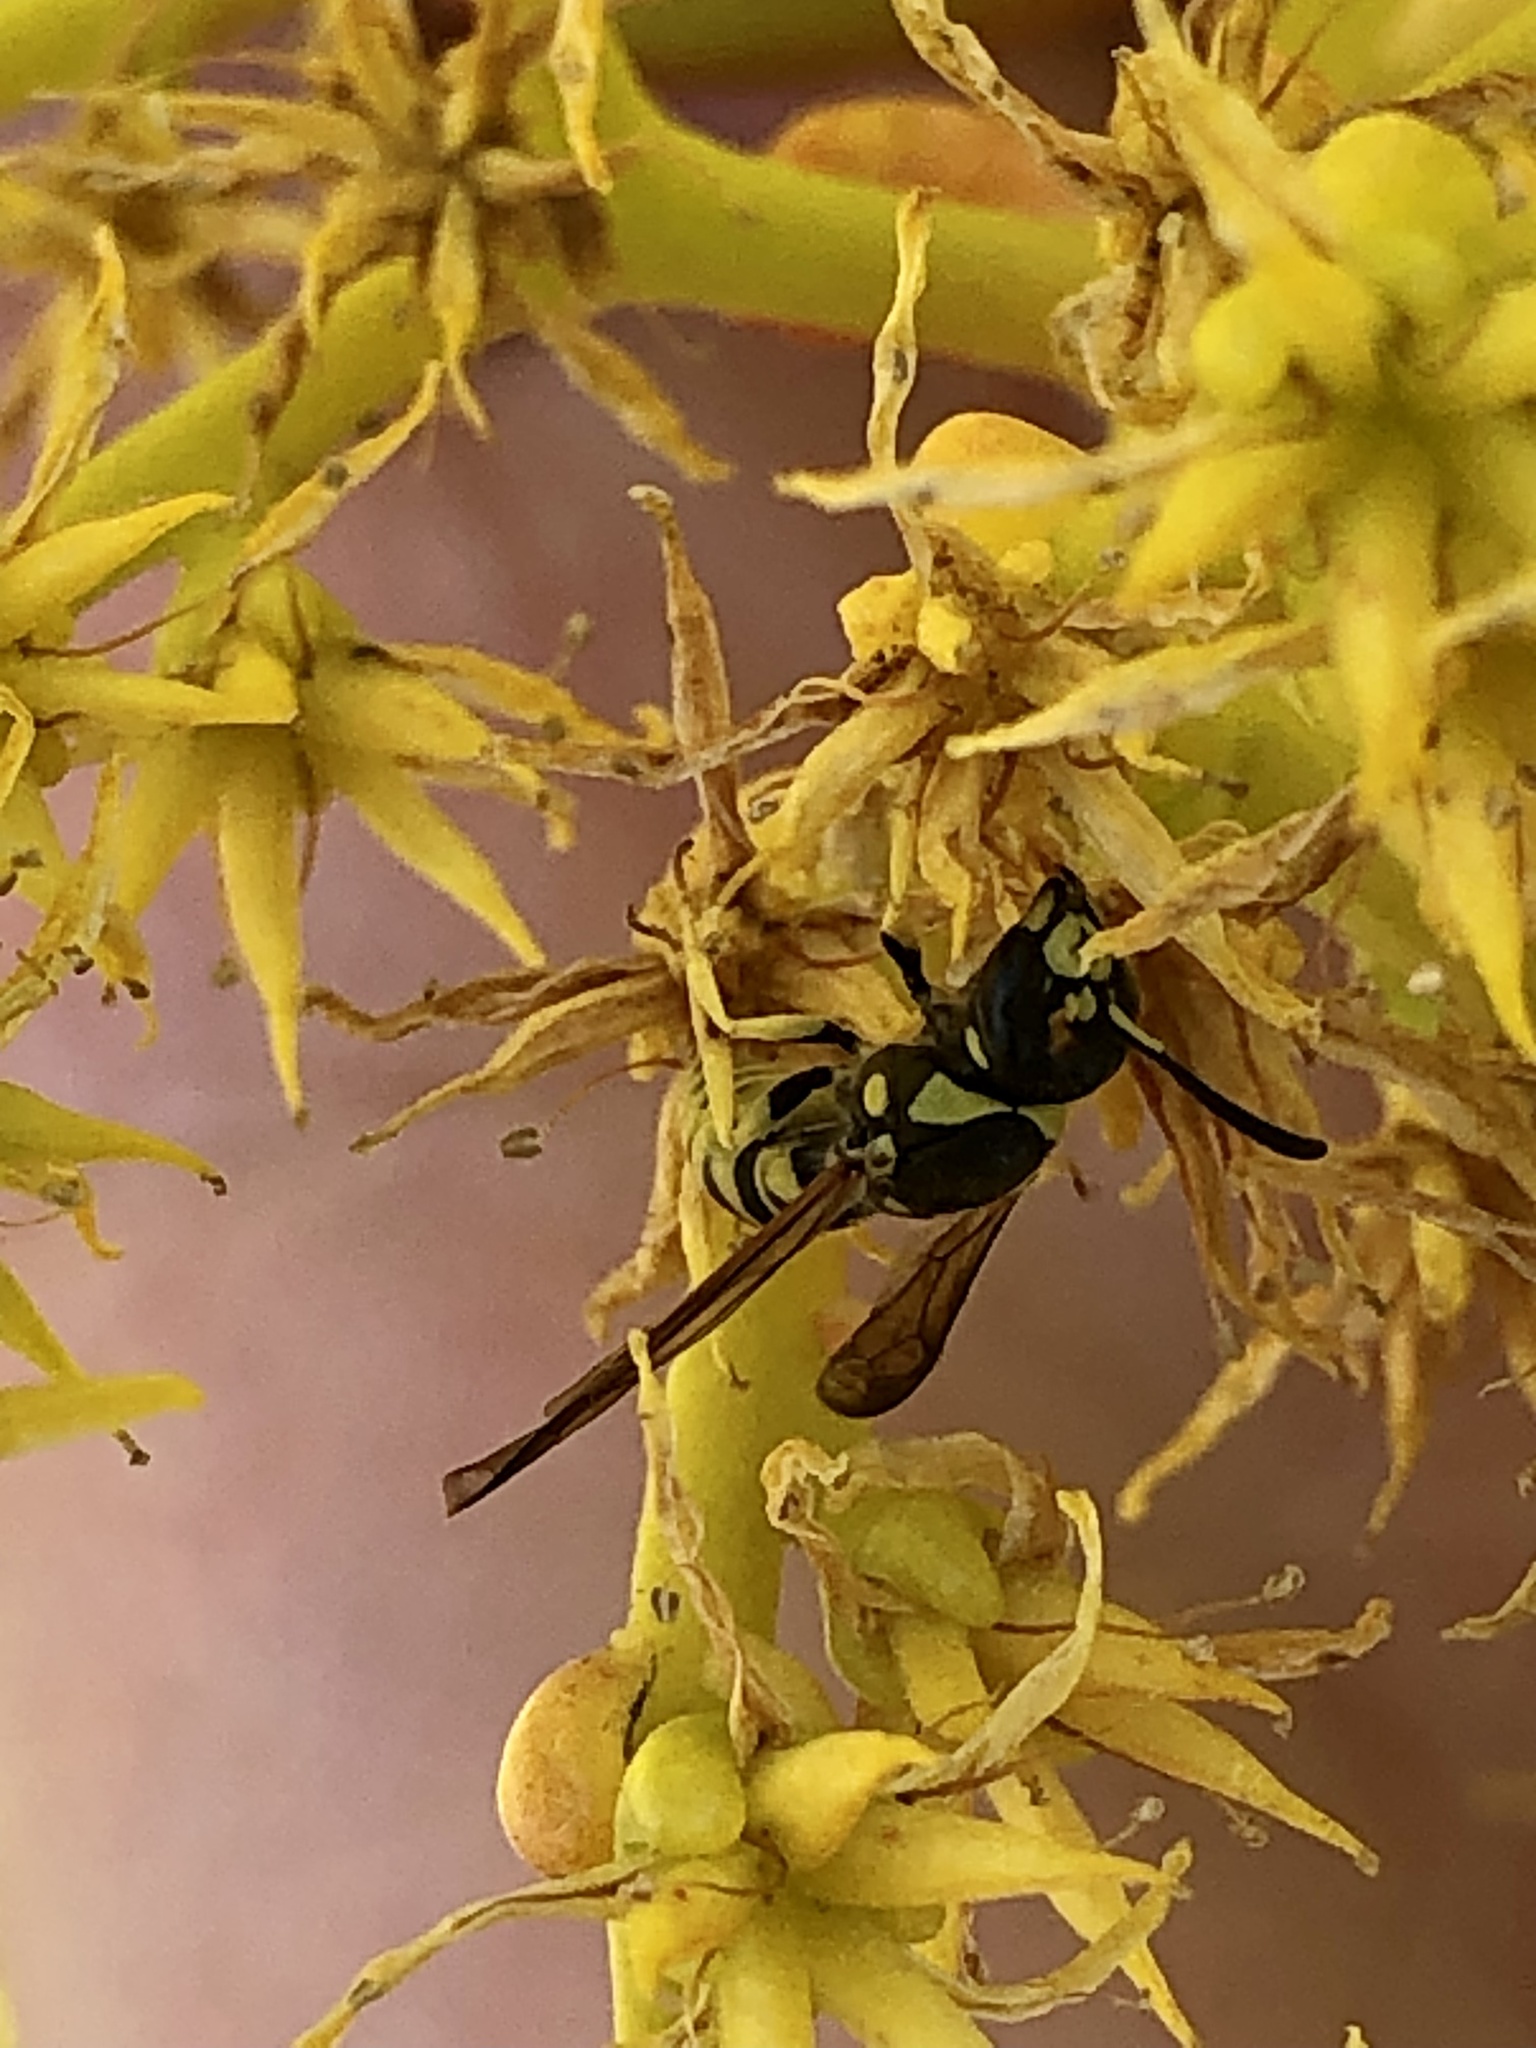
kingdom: Animalia
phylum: Arthropoda
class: Insecta
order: Hymenoptera
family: Vespidae
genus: Ancistrocerus
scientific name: Ancistrocerus adiabatus
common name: Bramble mason wasp
